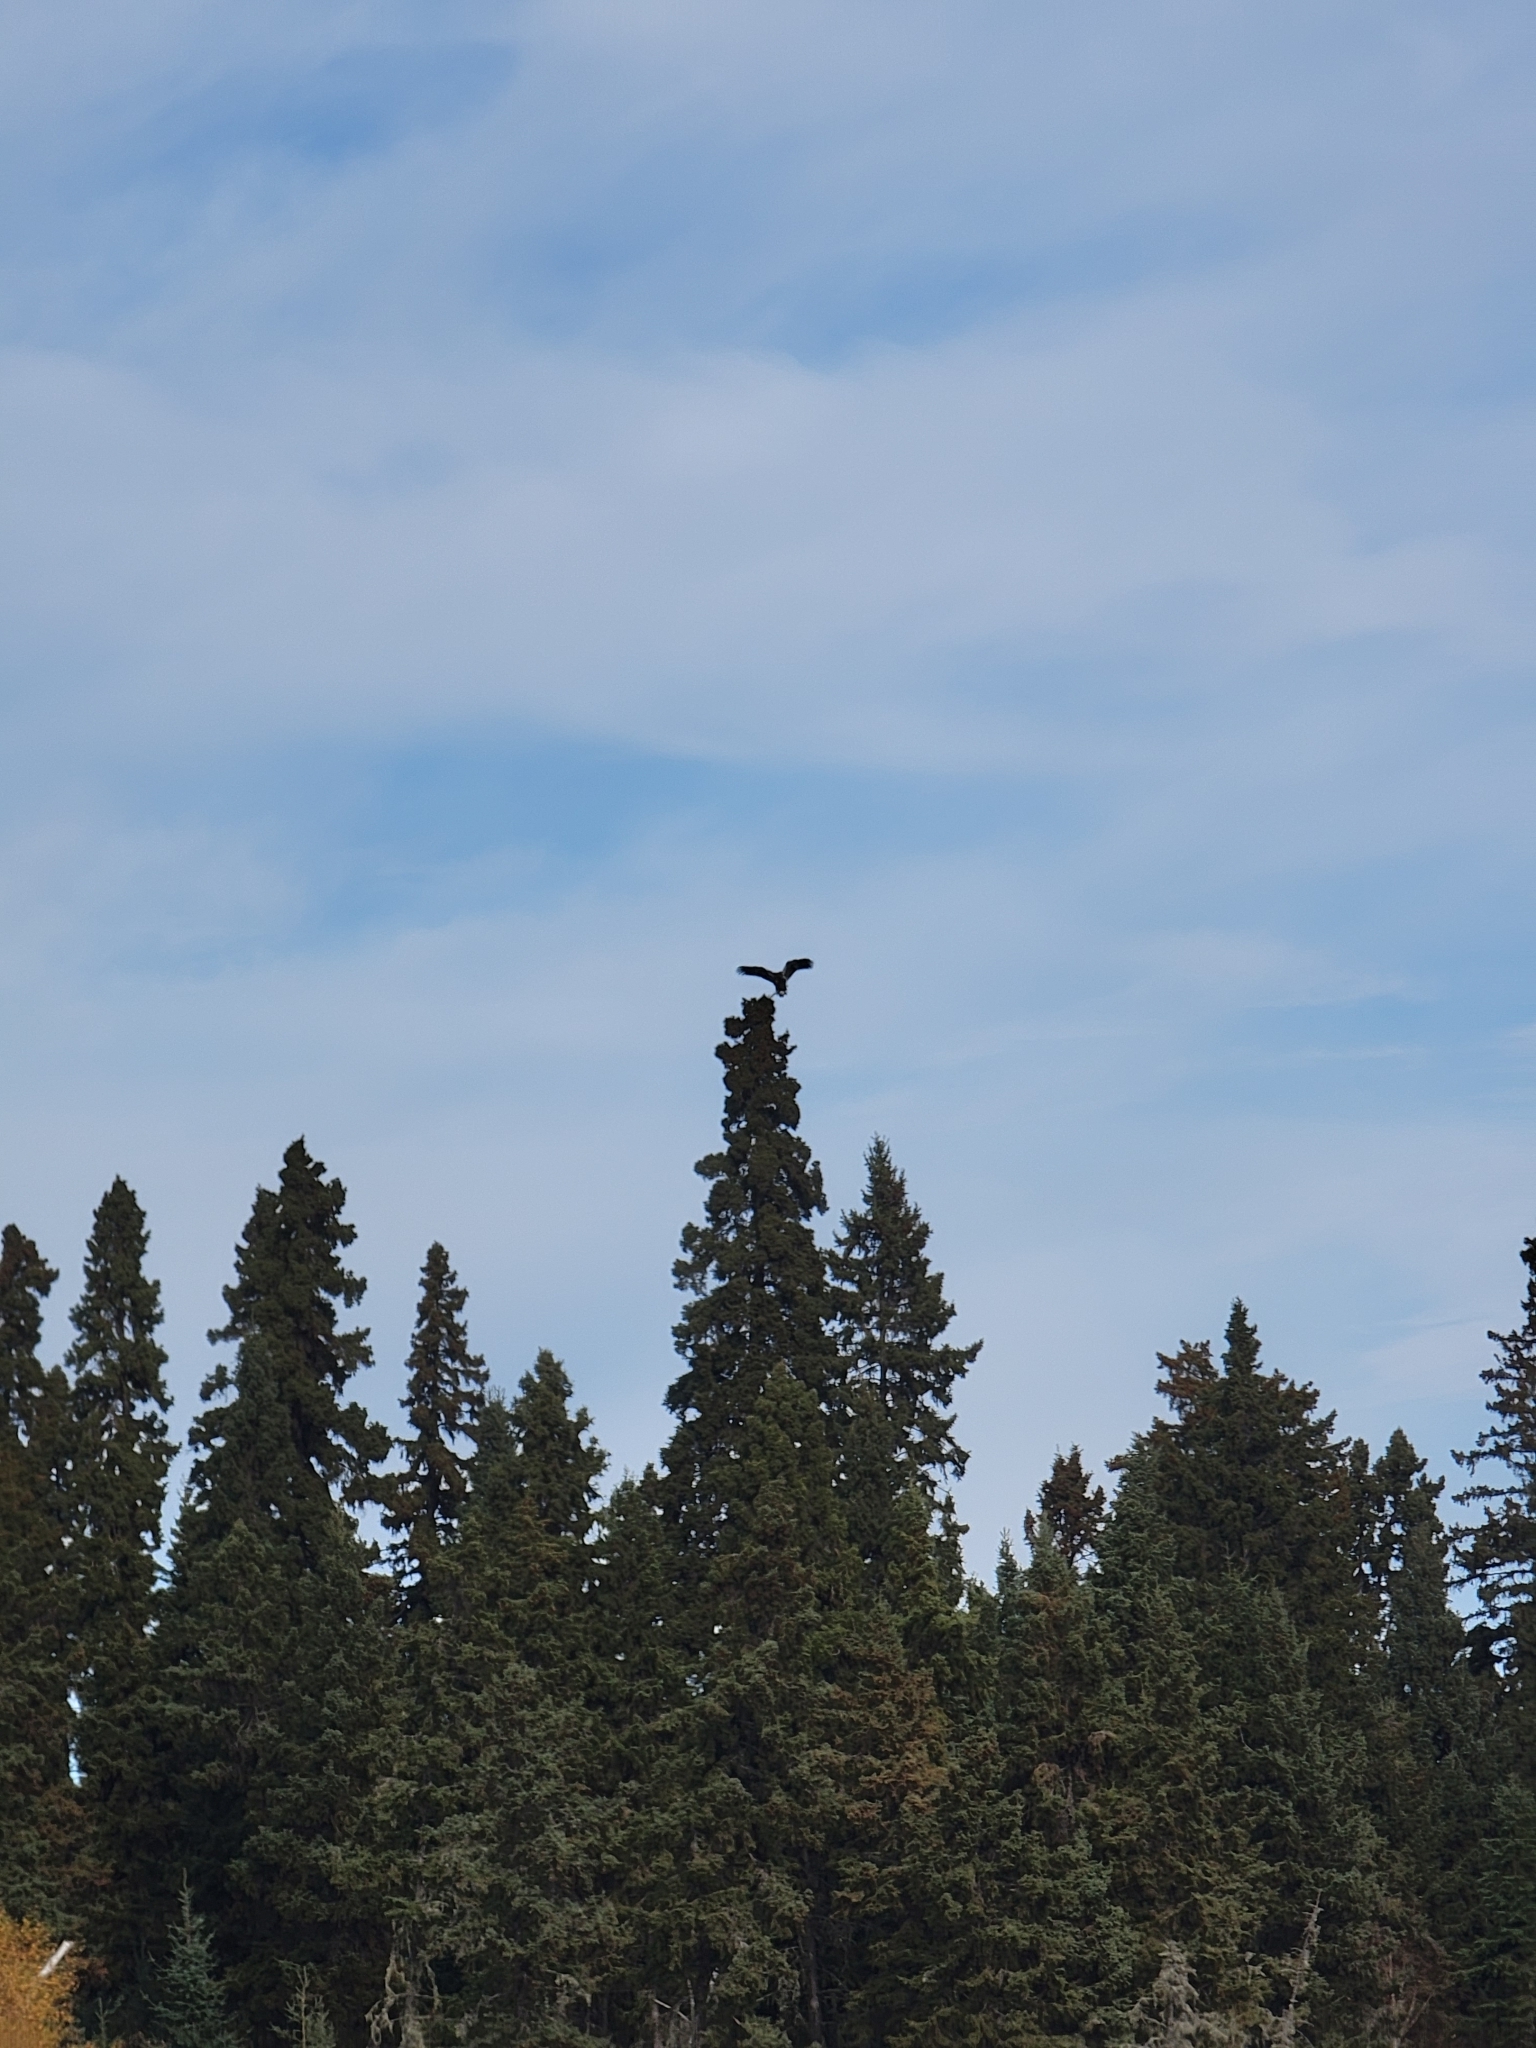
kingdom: Animalia
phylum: Chordata
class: Aves
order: Accipitriformes
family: Accipitridae
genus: Haliaeetus
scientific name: Haliaeetus leucocephalus
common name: Bald eagle
